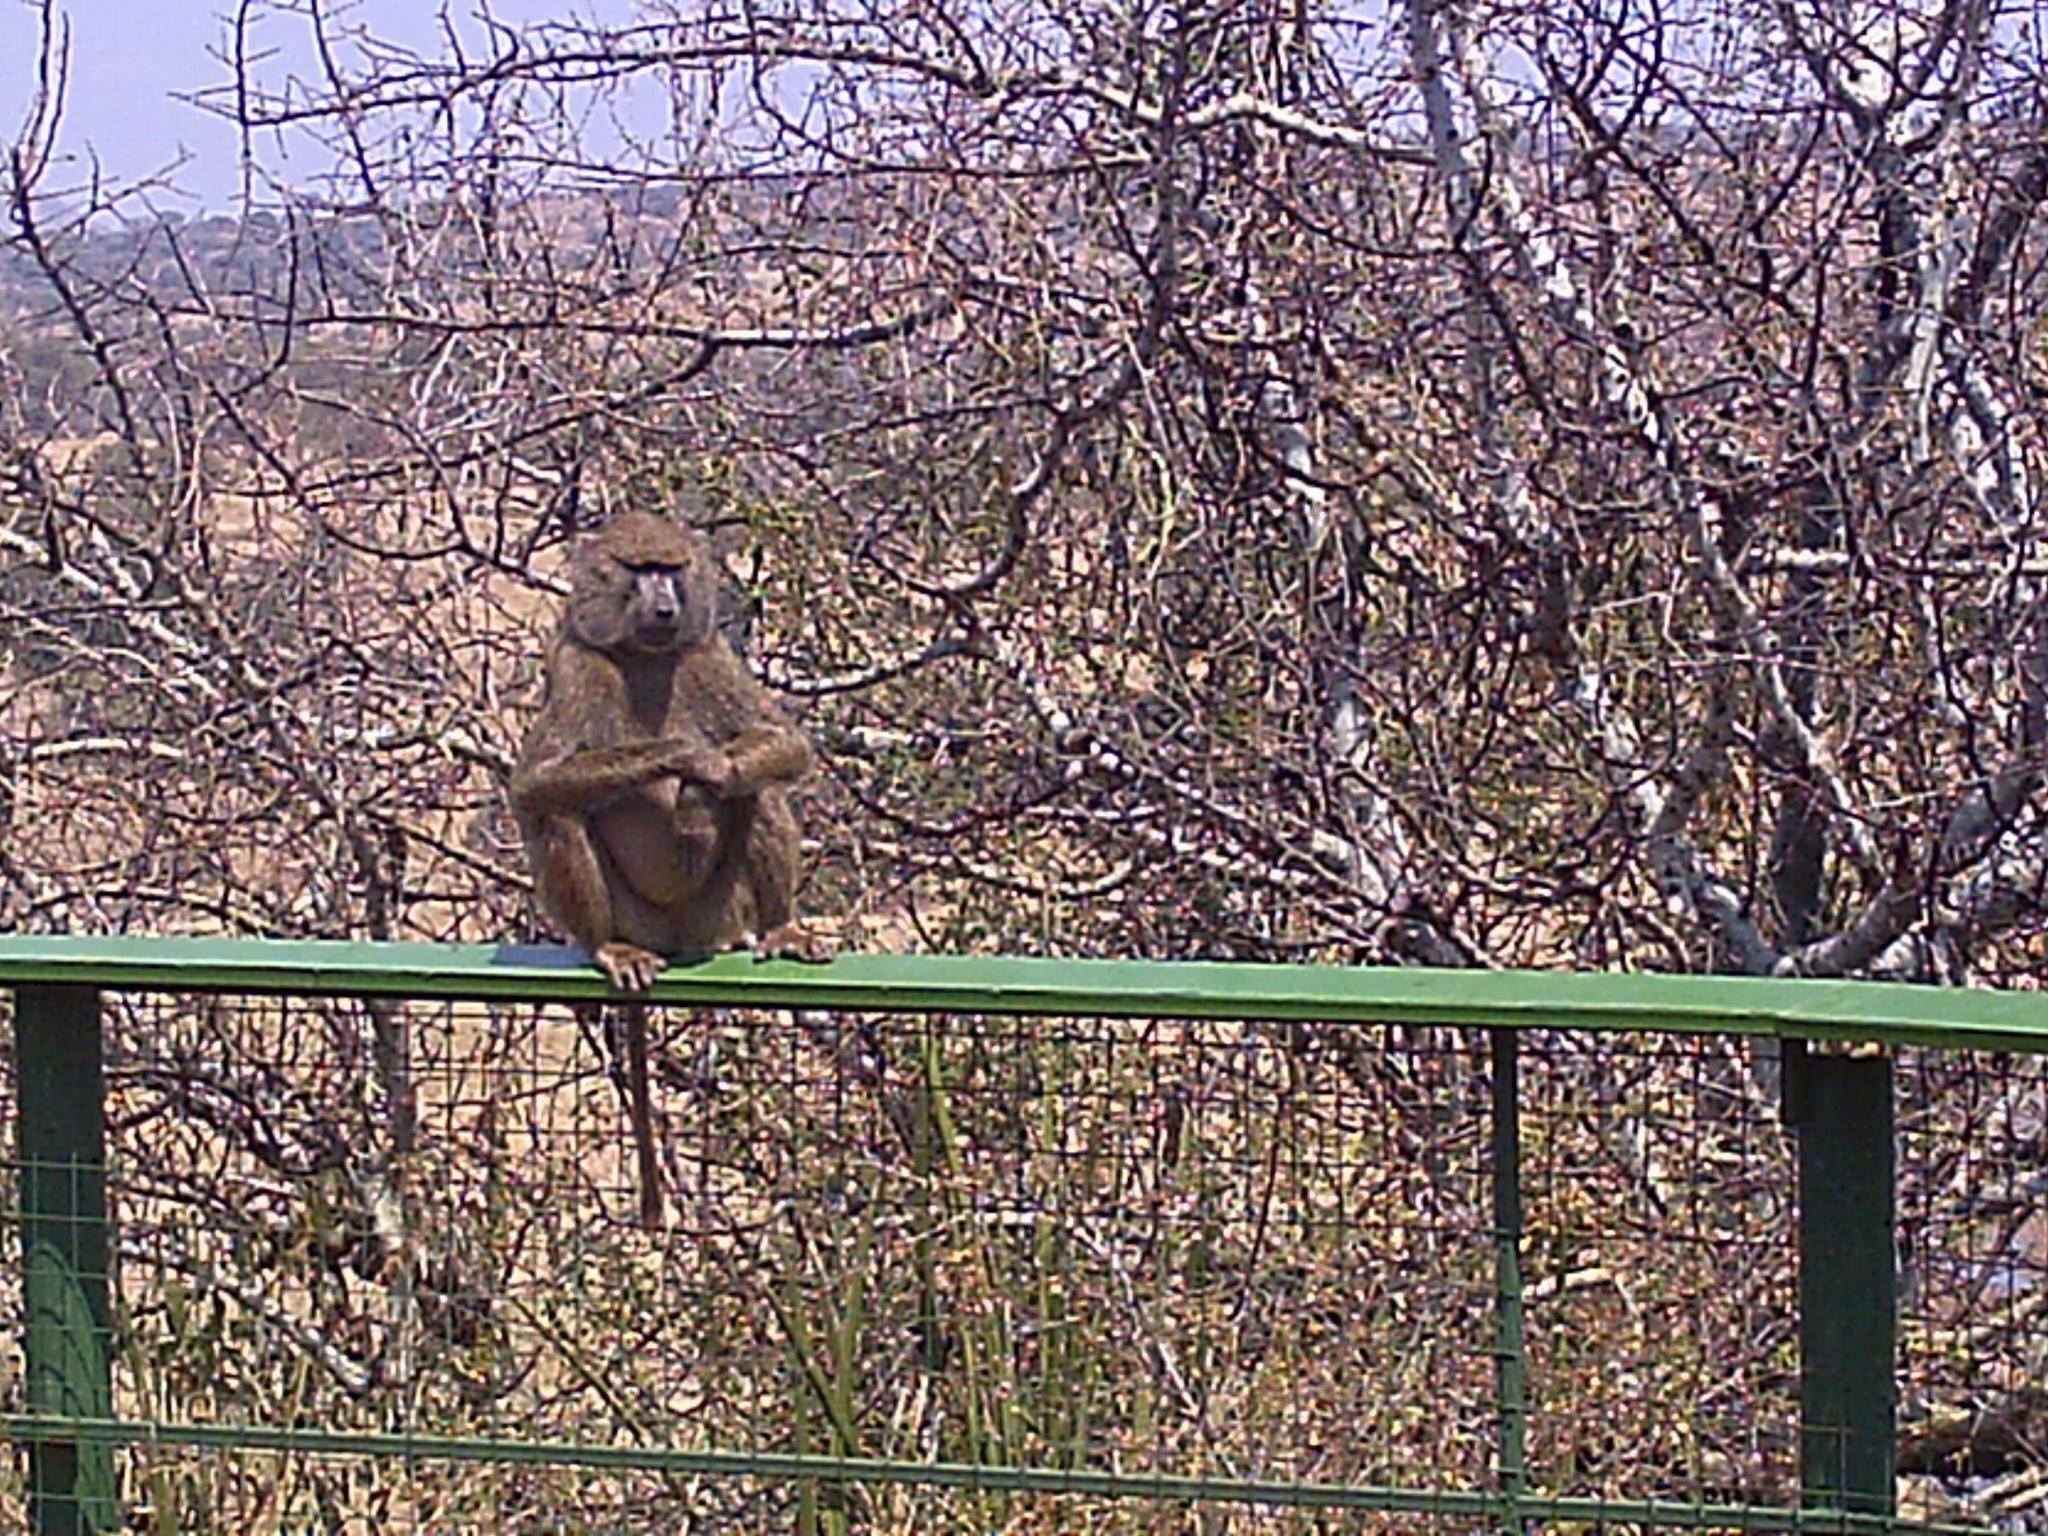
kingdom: Animalia
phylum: Chordata
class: Mammalia
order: Primates
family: Cercopithecidae
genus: Papio
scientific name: Papio anubis
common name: Olive baboon
